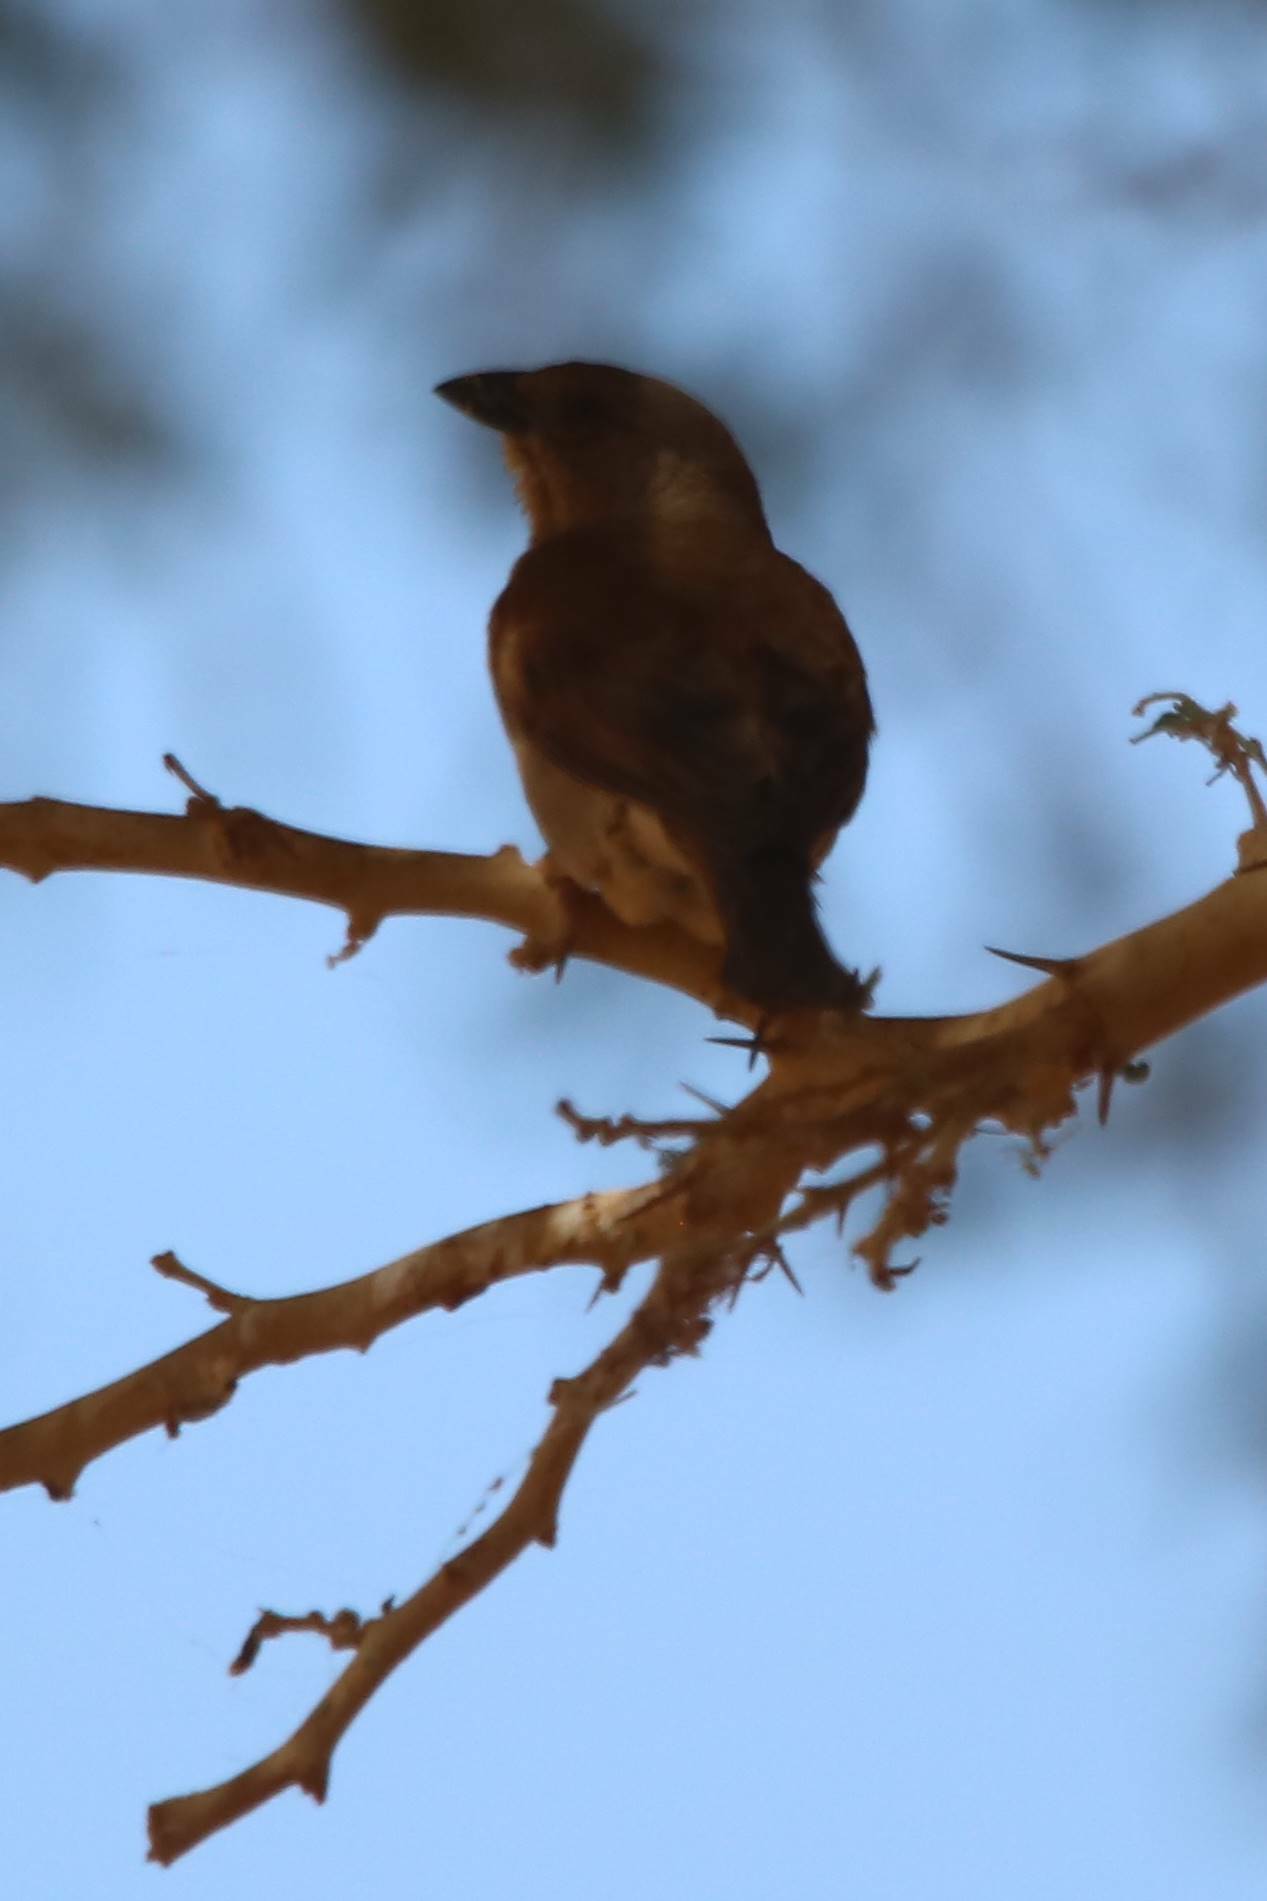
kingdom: Animalia
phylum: Chordata
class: Aves
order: Passeriformes
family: Passeridae
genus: Passer
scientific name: Passer griseus
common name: Northern grey-headed sparrow
